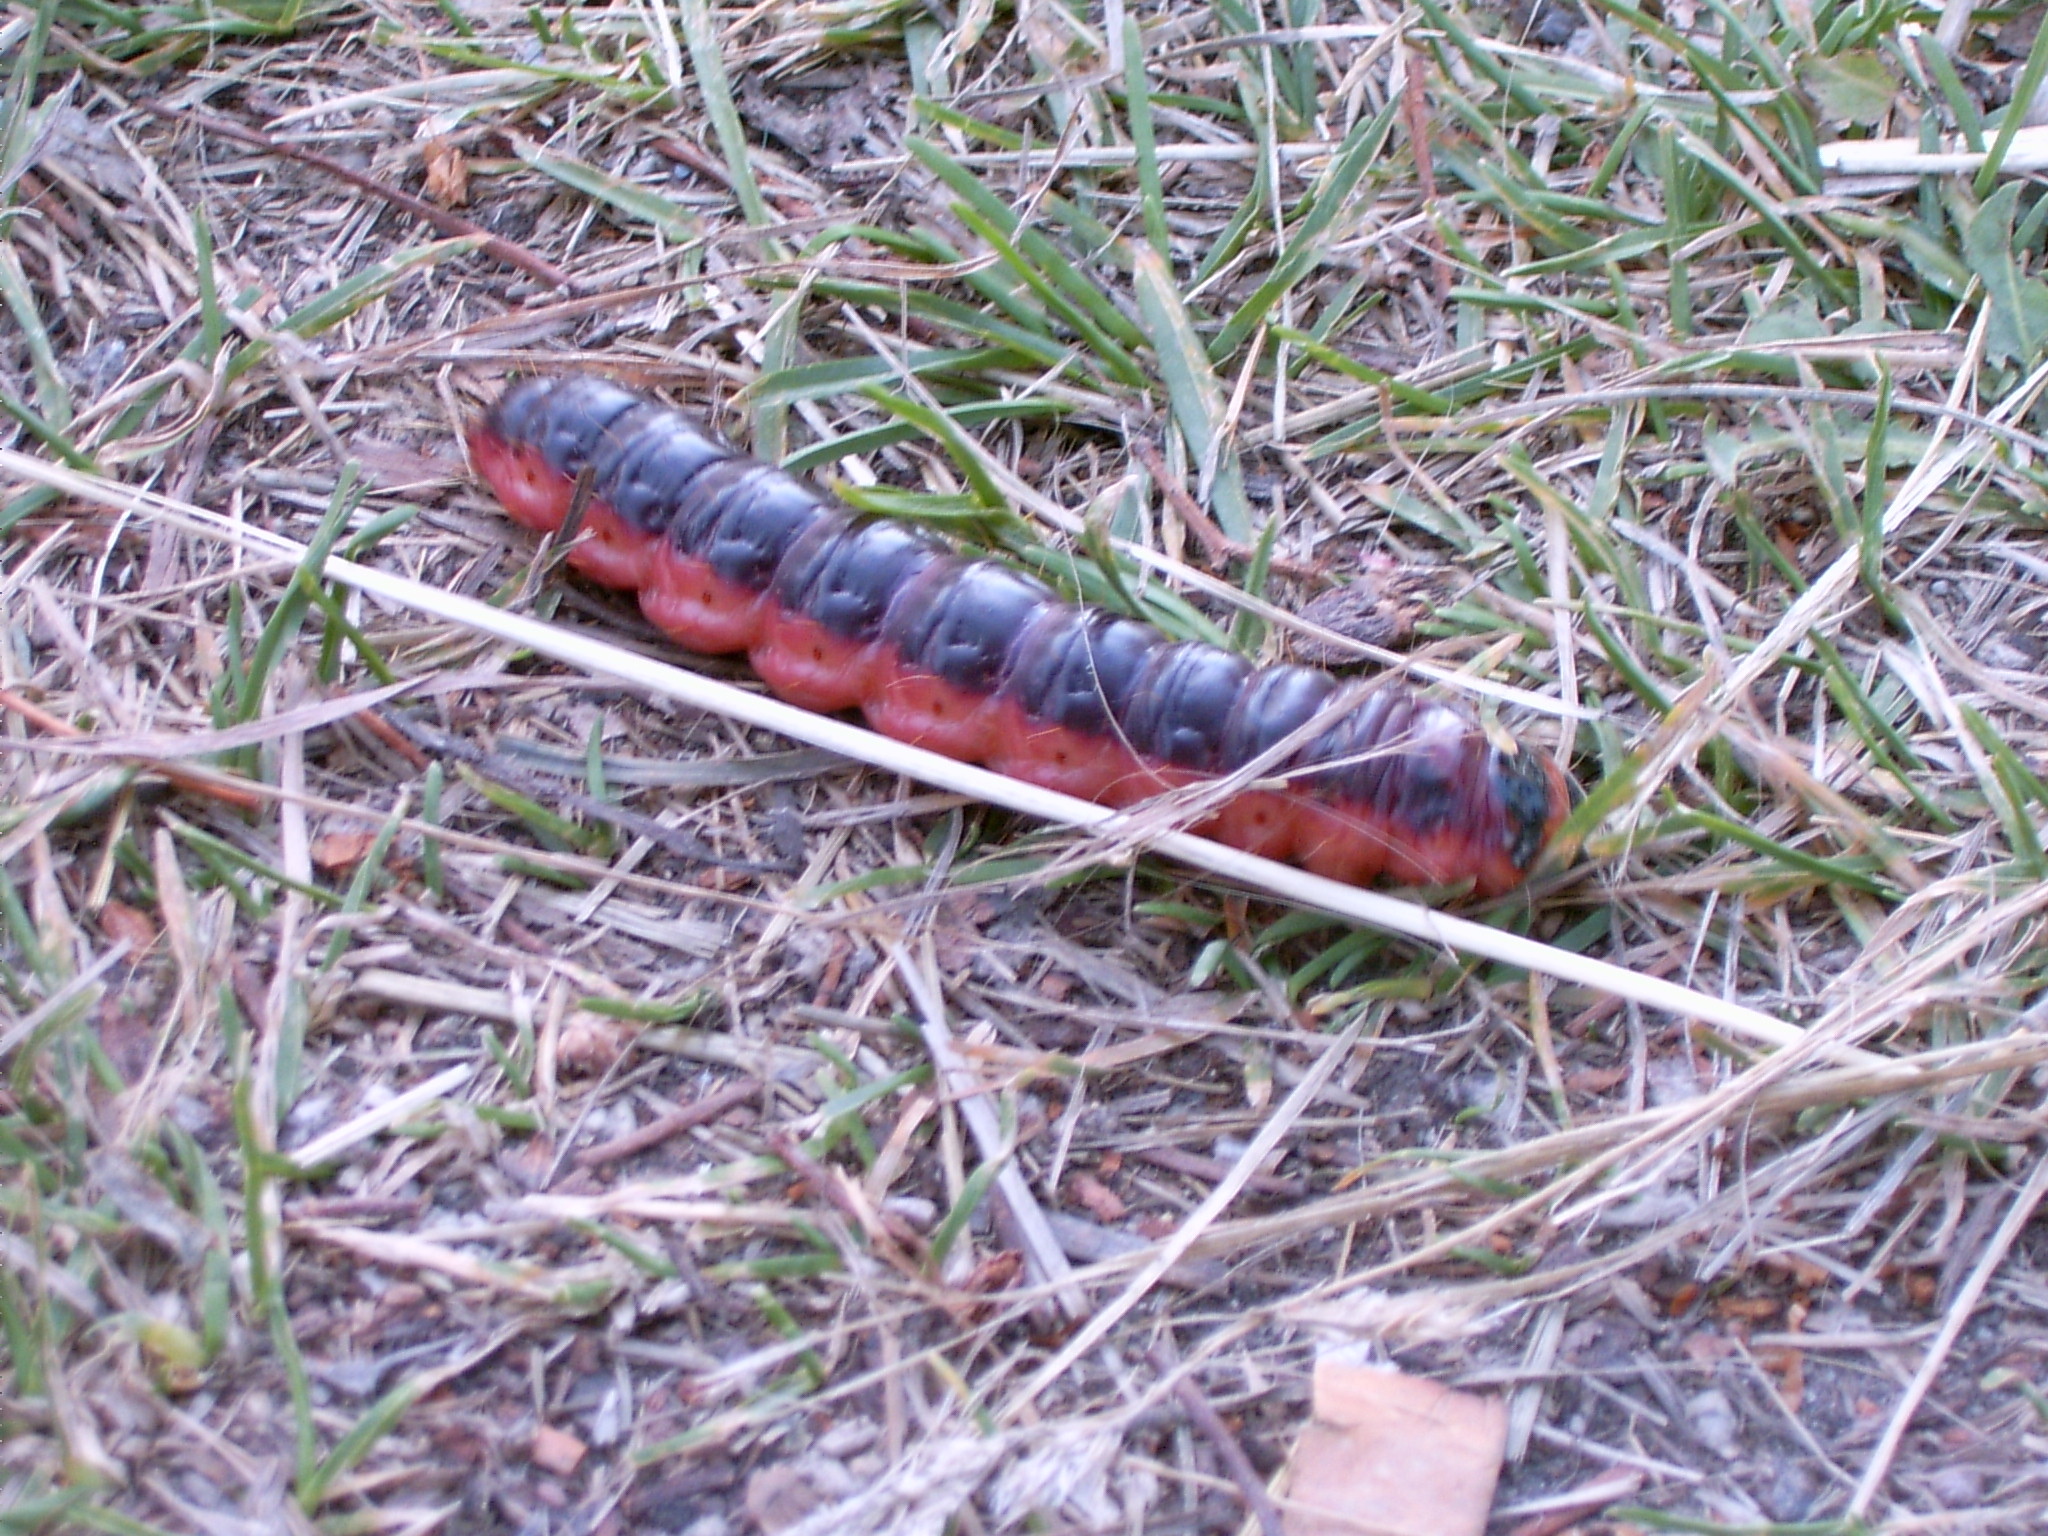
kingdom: Animalia
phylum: Arthropoda
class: Insecta
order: Lepidoptera
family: Cossidae
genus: Cossus
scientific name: Cossus cossus
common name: Goat moth
